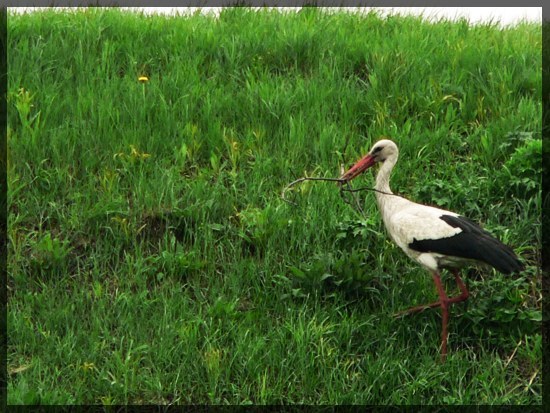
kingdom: Animalia
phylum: Chordata
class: Aves
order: Ciconiiformes
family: Ciconiidae
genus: Ciconia
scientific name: Ciconia ciconia
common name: White stork
